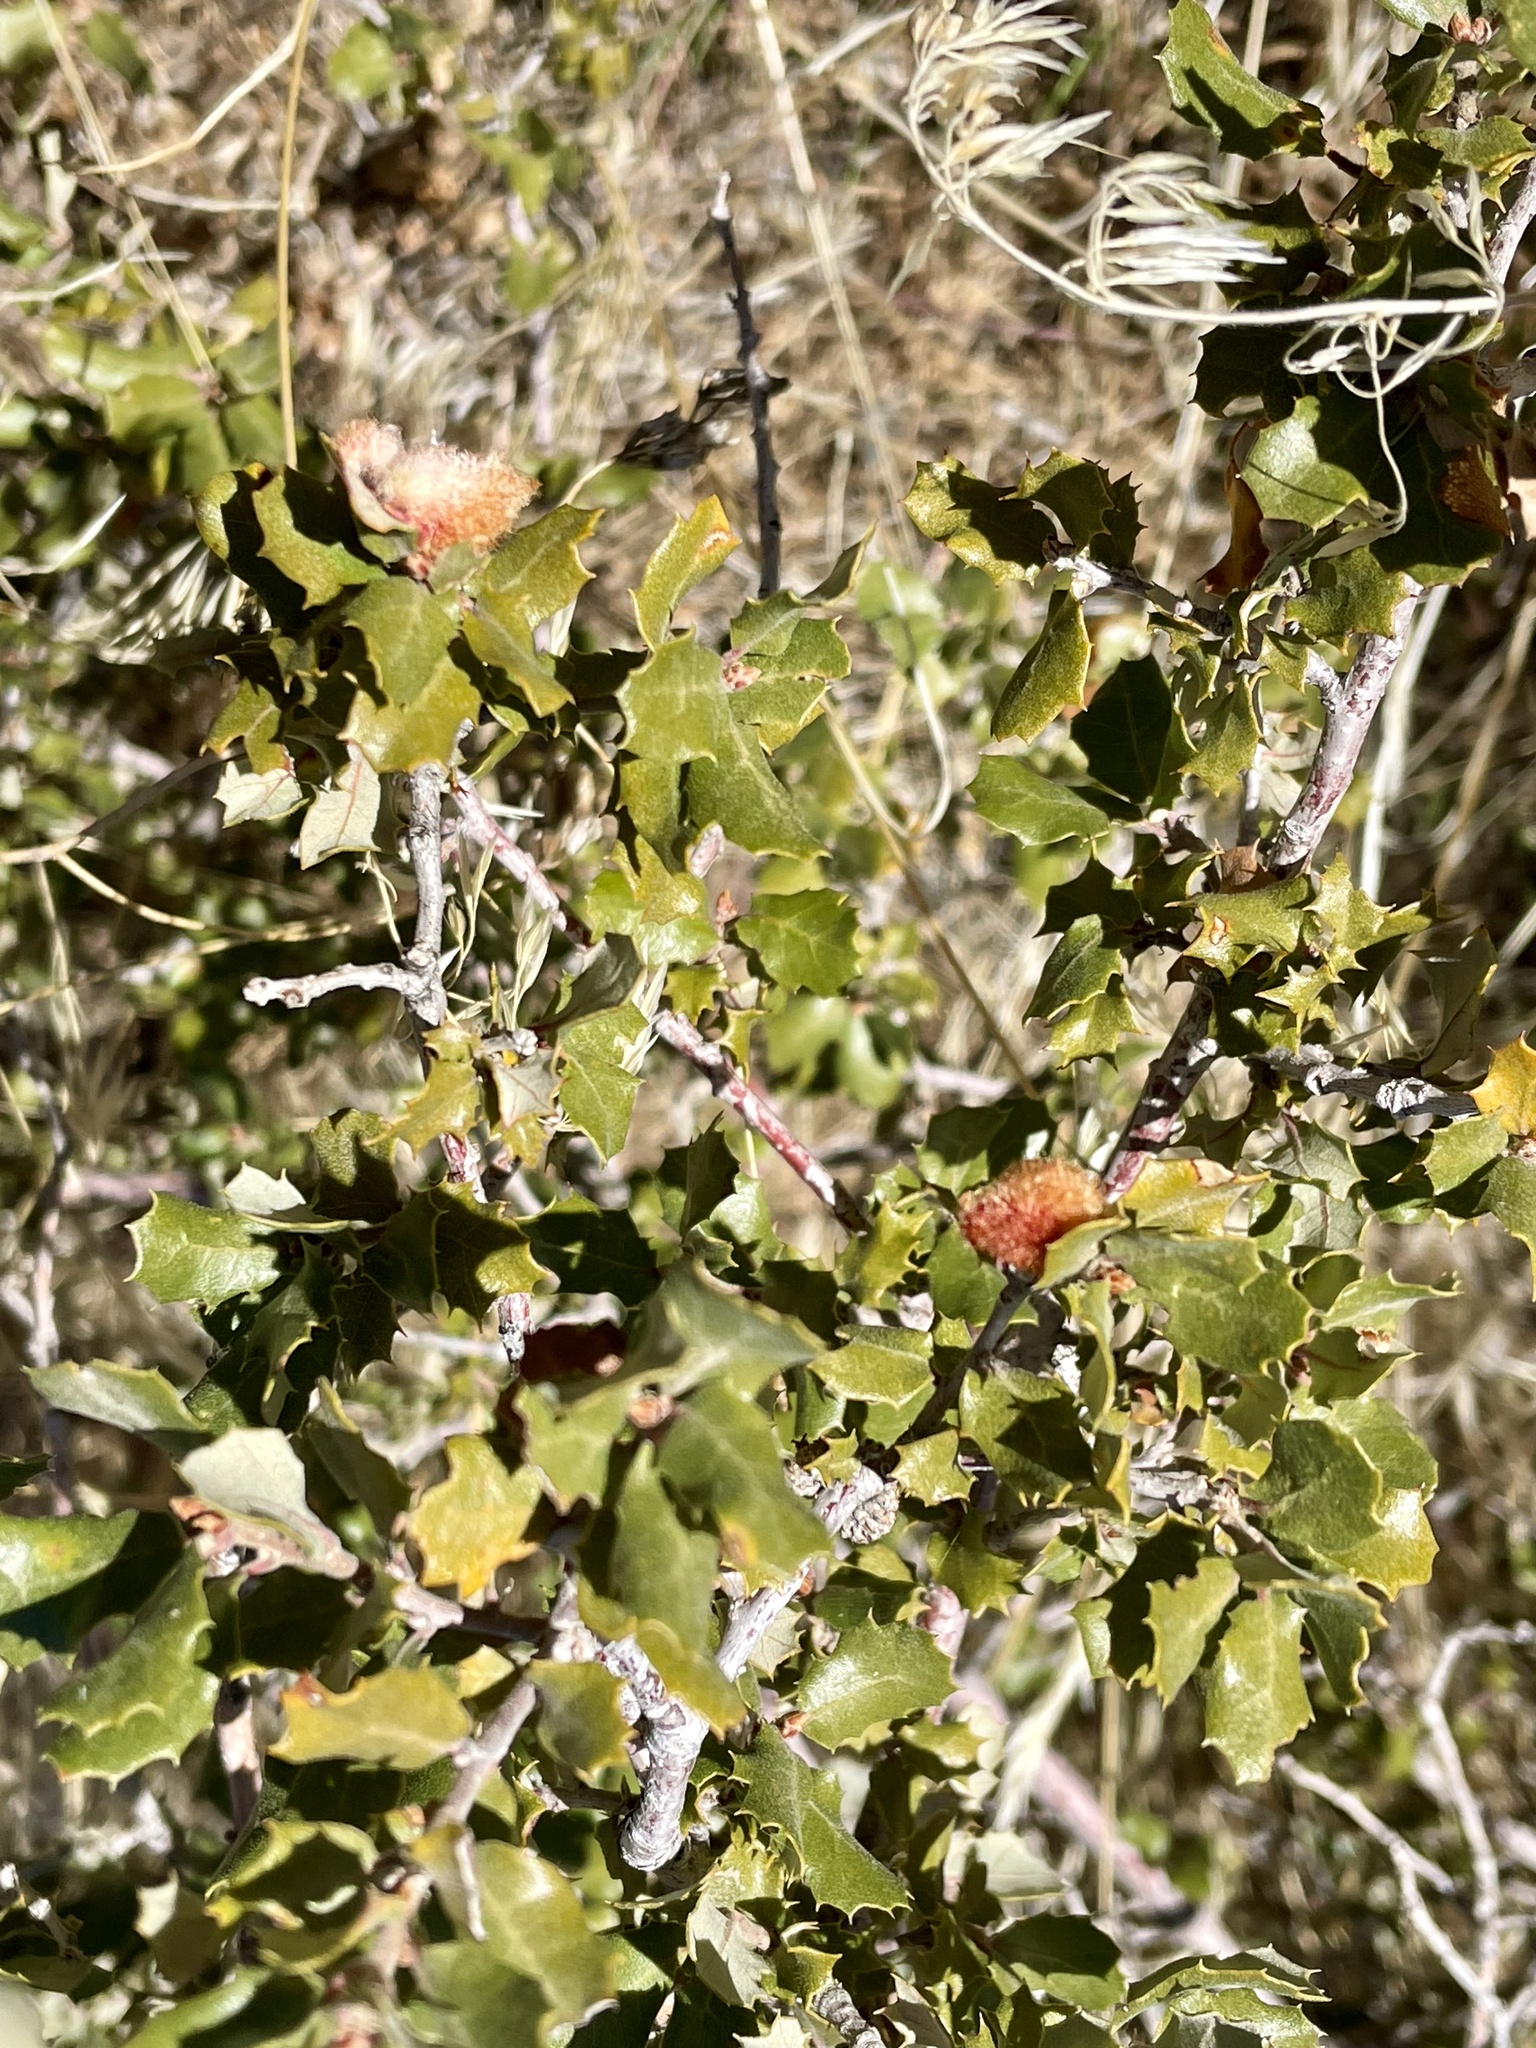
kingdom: Animalia
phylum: Arthropoda
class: Insecta
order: Hymenoptera
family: Cynipidae
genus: Andricus
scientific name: Andricus
